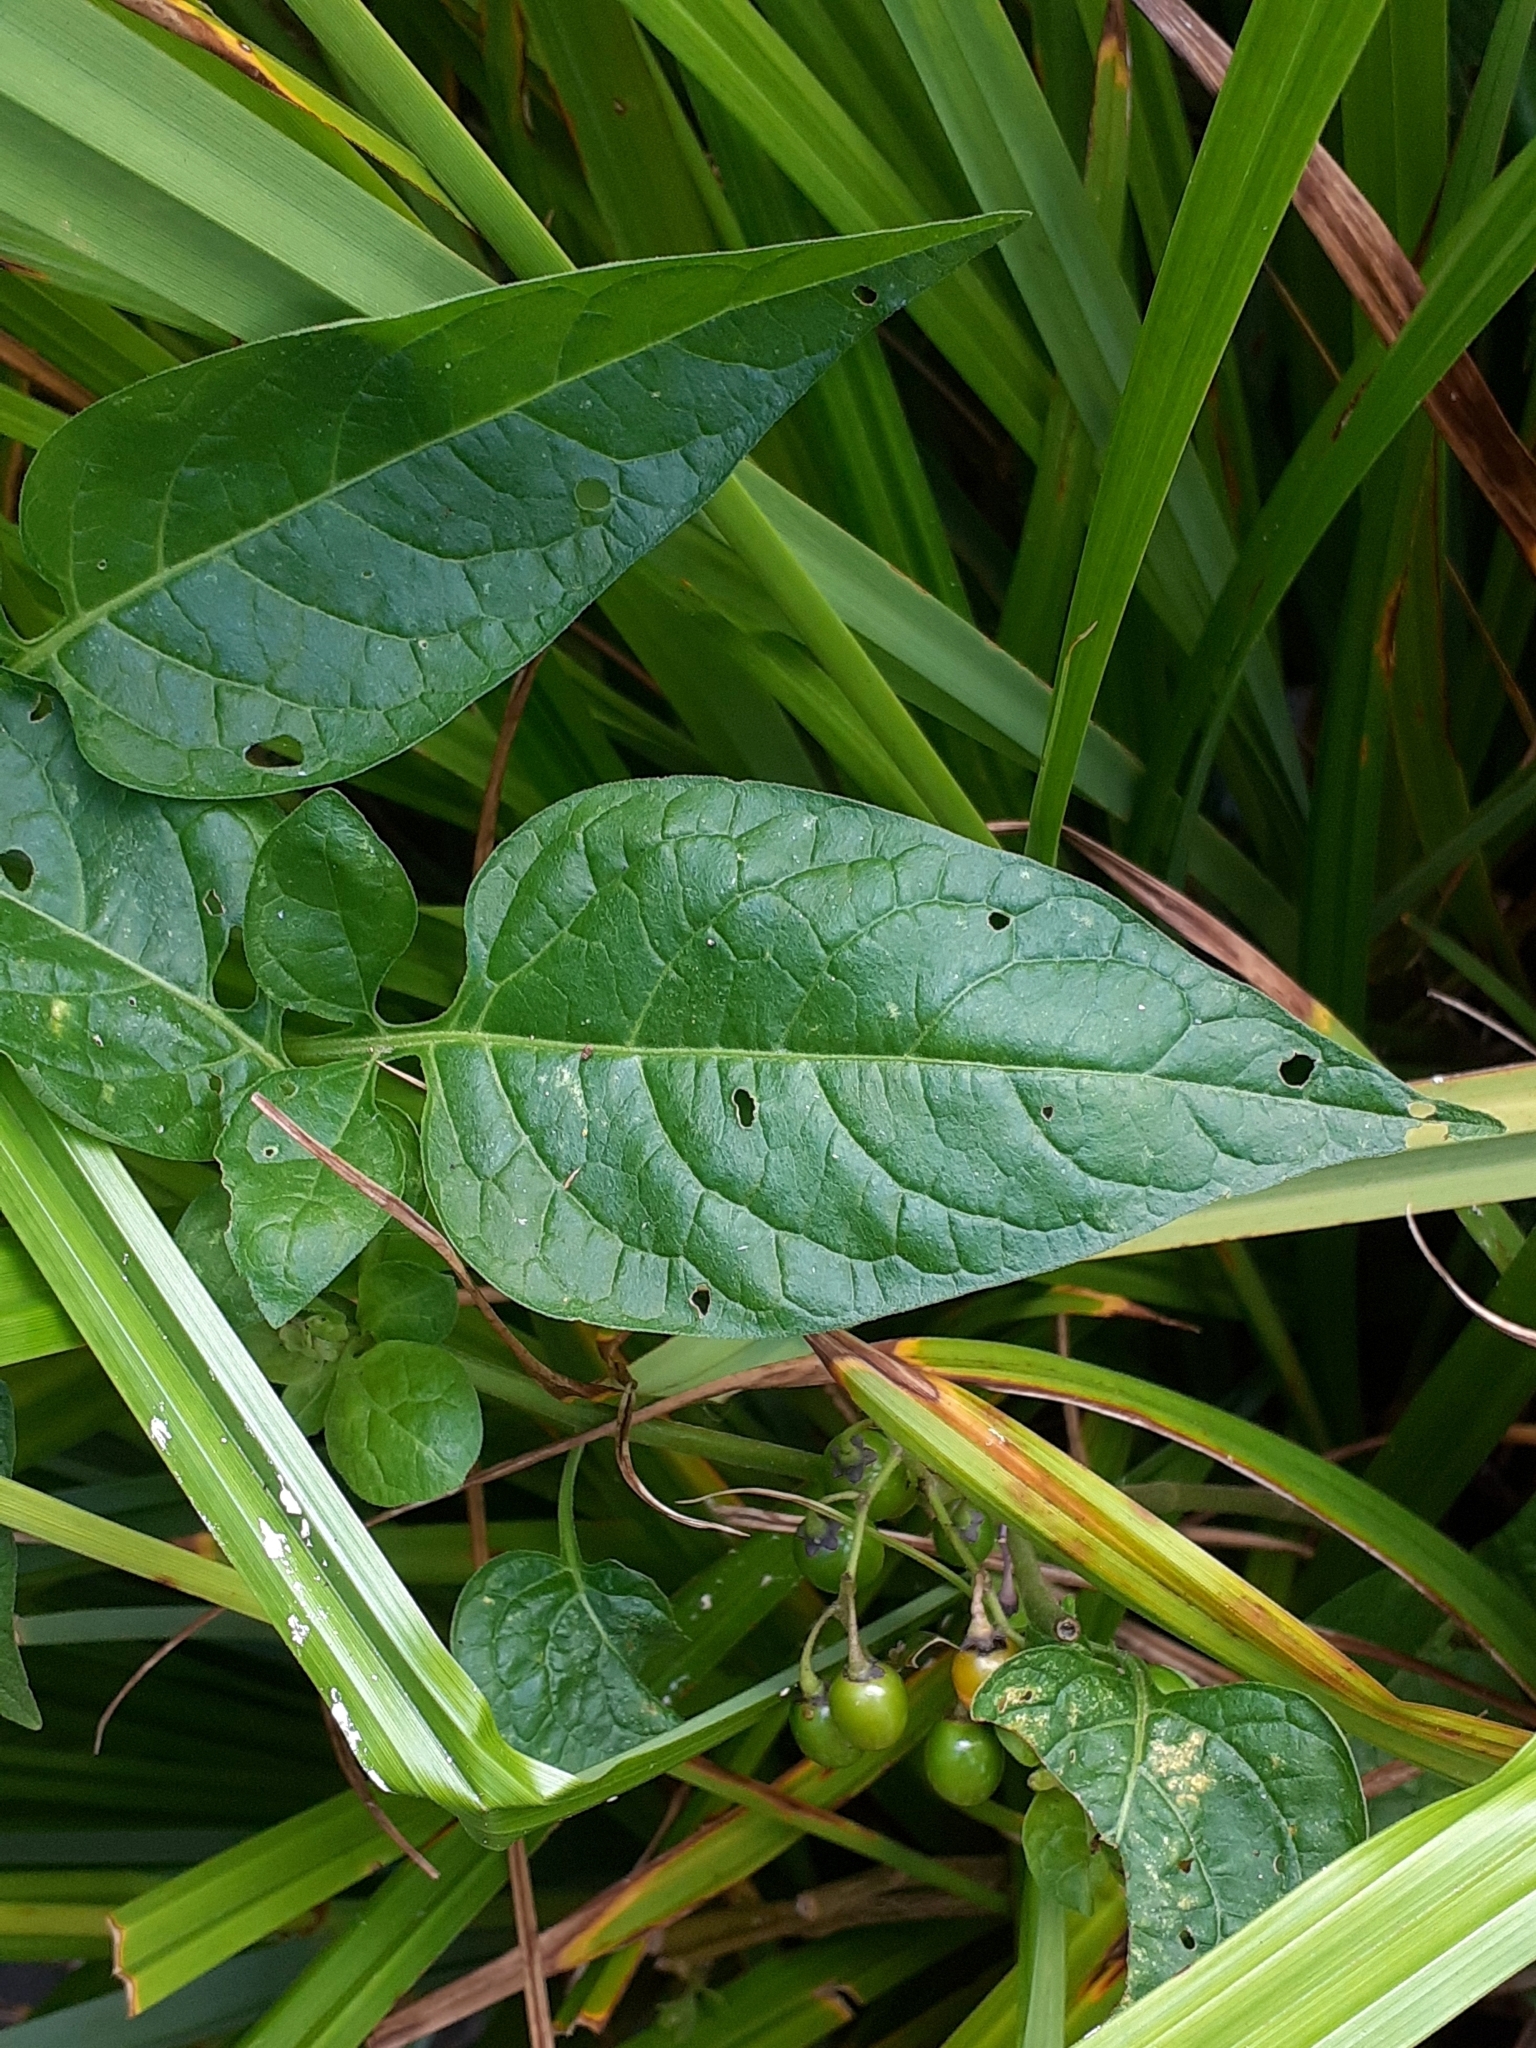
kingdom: Plantae
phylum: Tracheophyta
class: Magnoliopsida
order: Solanales
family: Solanaceae
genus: Solanum
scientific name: Solanum dulcamara
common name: Climbing nightshade
